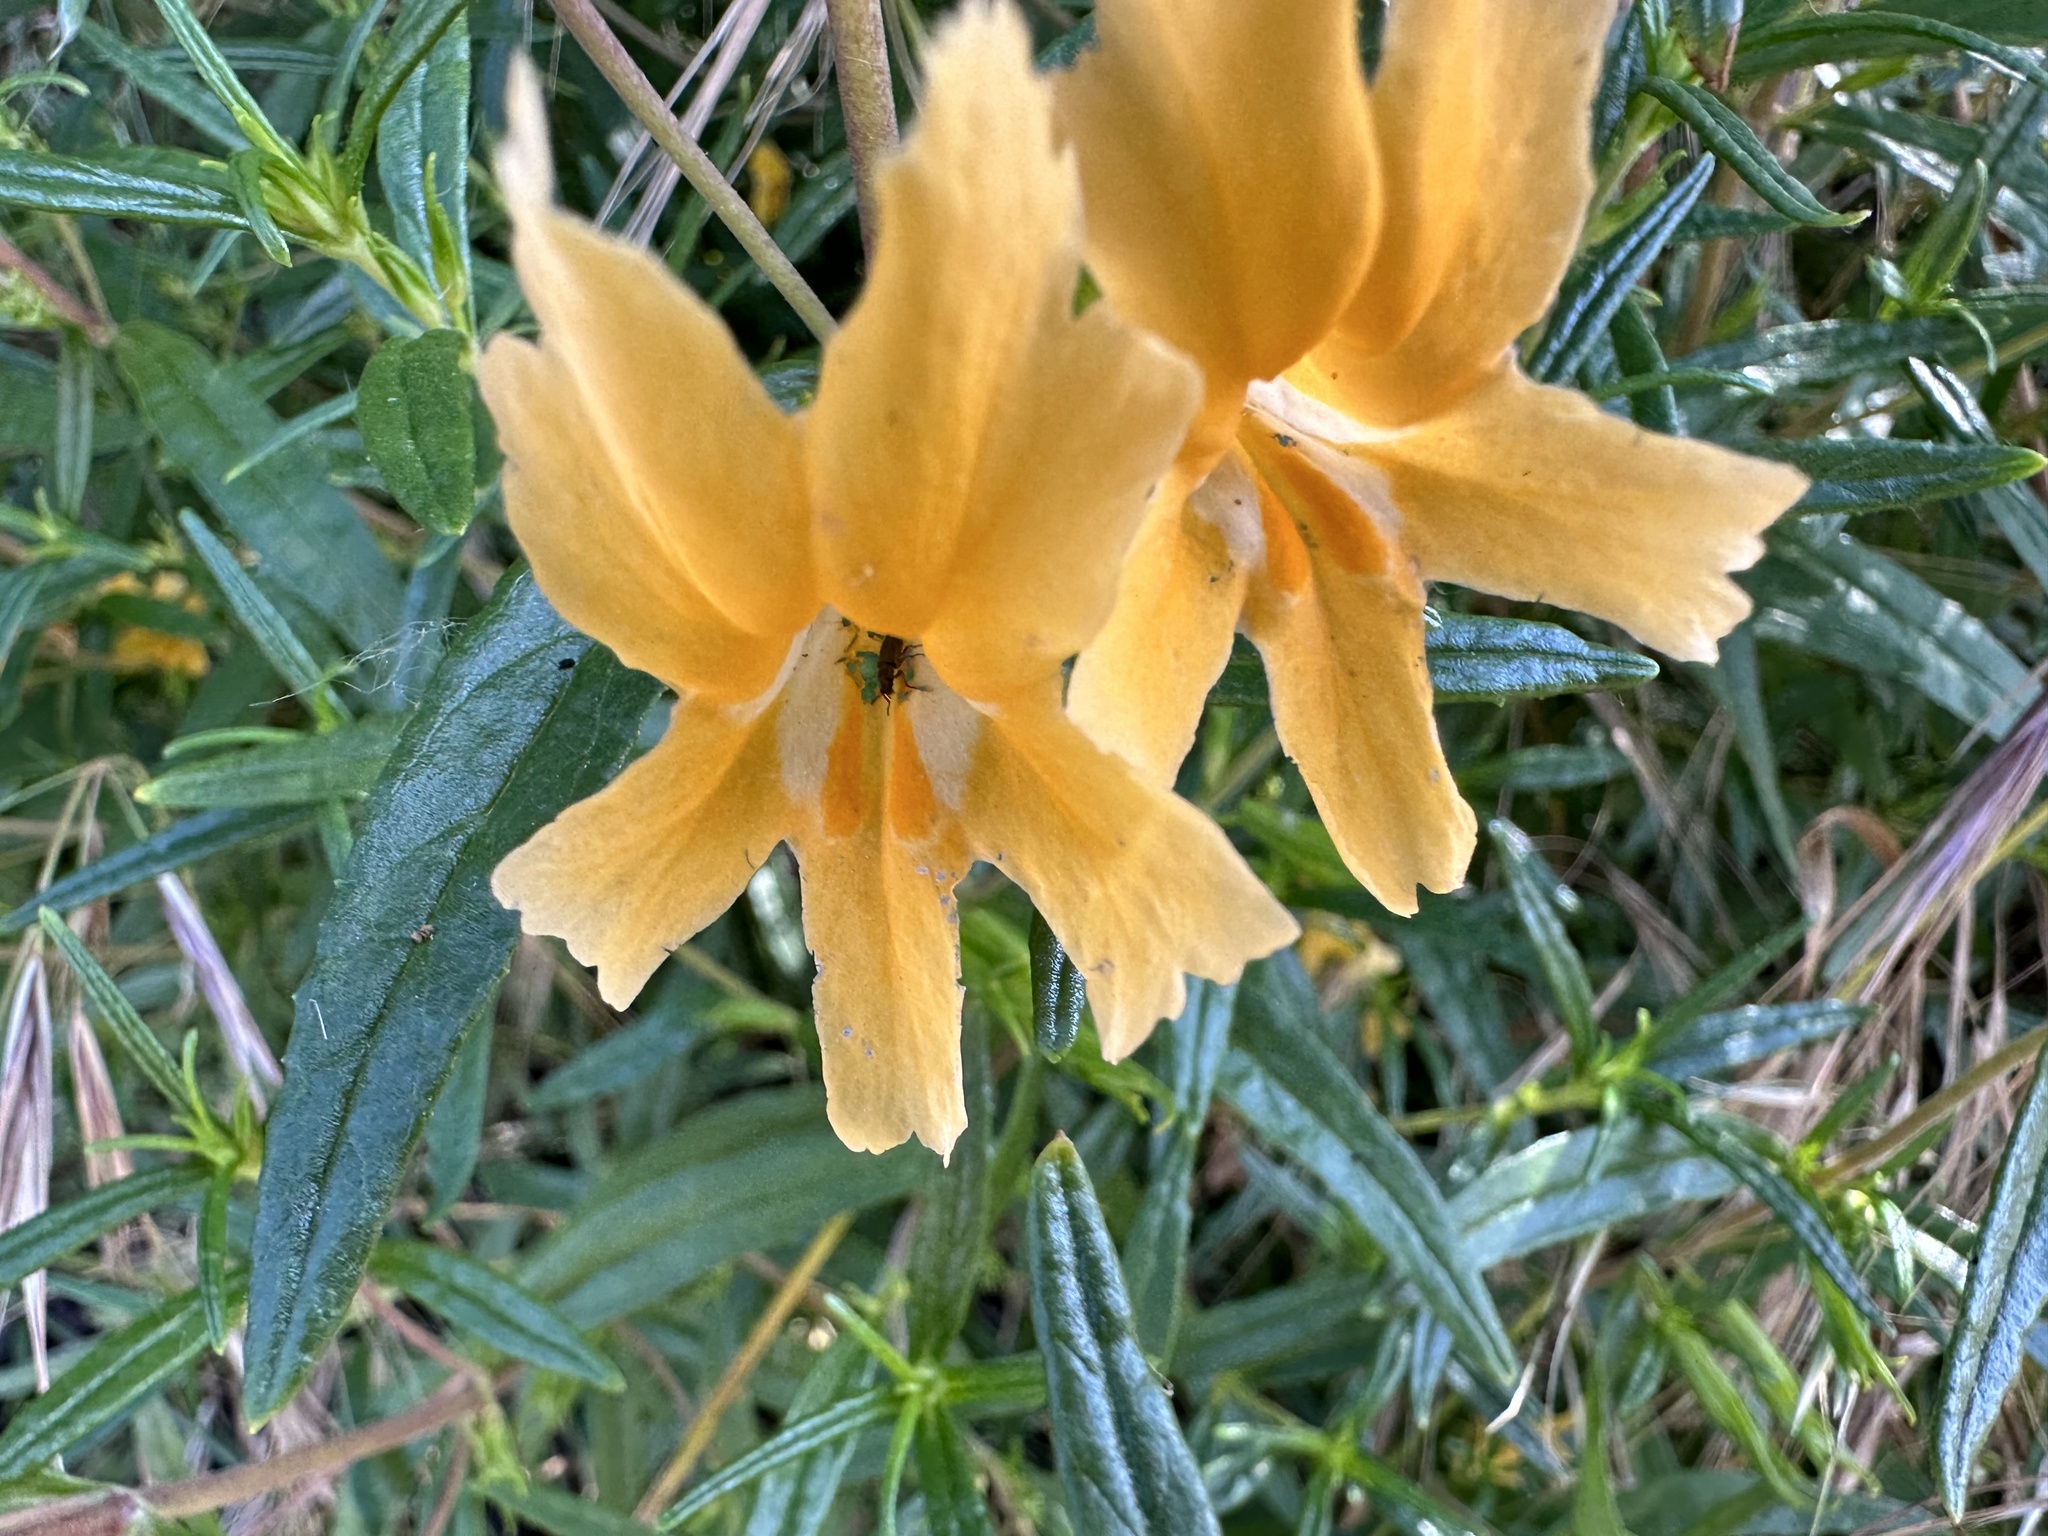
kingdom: Plantae
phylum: Tracheophyta
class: Magnoliopsida
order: Lamiales
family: Phrymaceae
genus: Diplacus
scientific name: Diplacus australis
